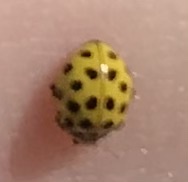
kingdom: Animalia
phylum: Arthropoda
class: Insecta
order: Coleoptera
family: Coccinellidae
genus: Psyllobora
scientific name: Psyllobora vigintiduopunctata
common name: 22-spot ladybird
